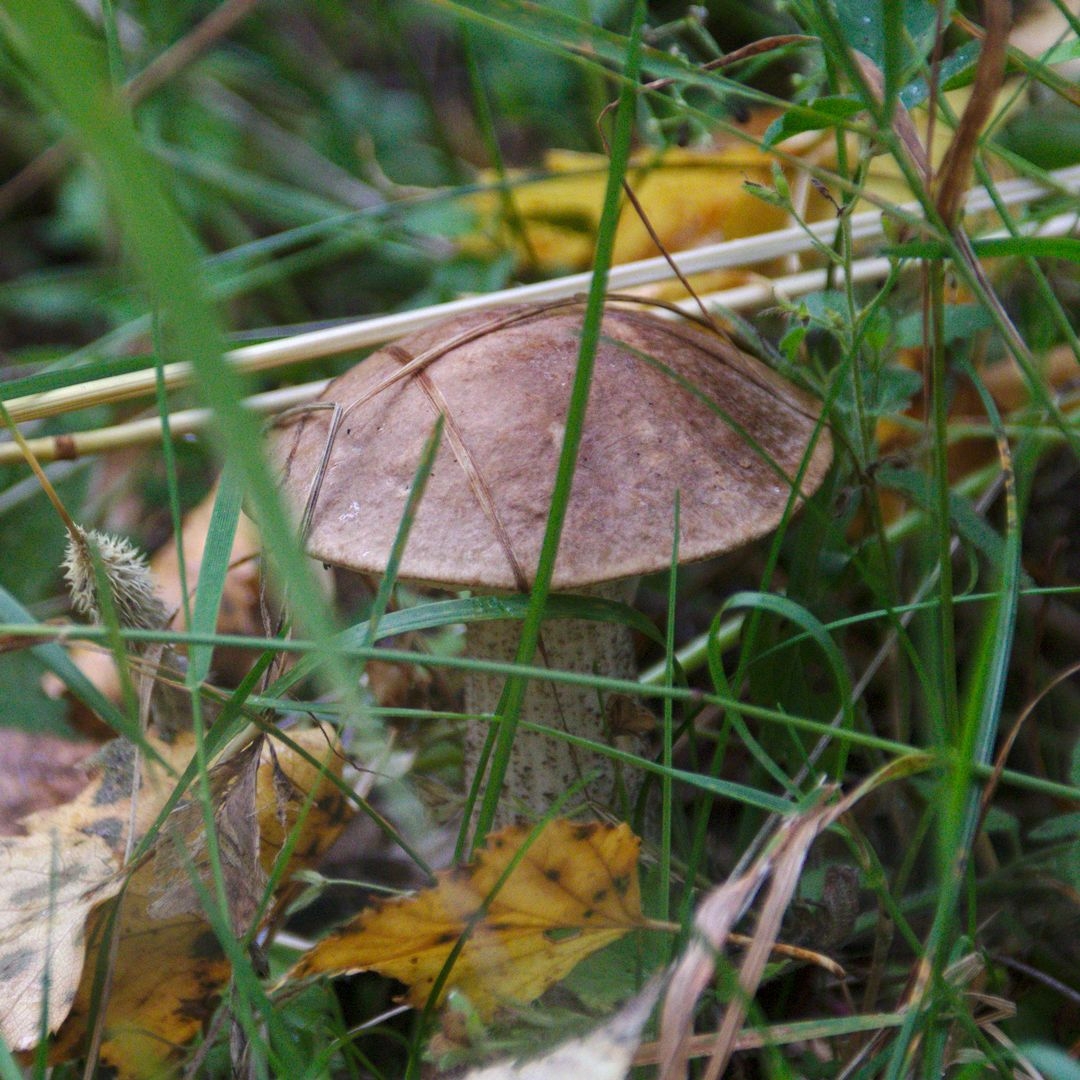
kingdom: Fungi
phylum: Basidiomycota
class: Agaricomycetes
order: Boletales
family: Boletaceae
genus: Leccinum
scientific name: Leccinum scabrum
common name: Blushing bolete
